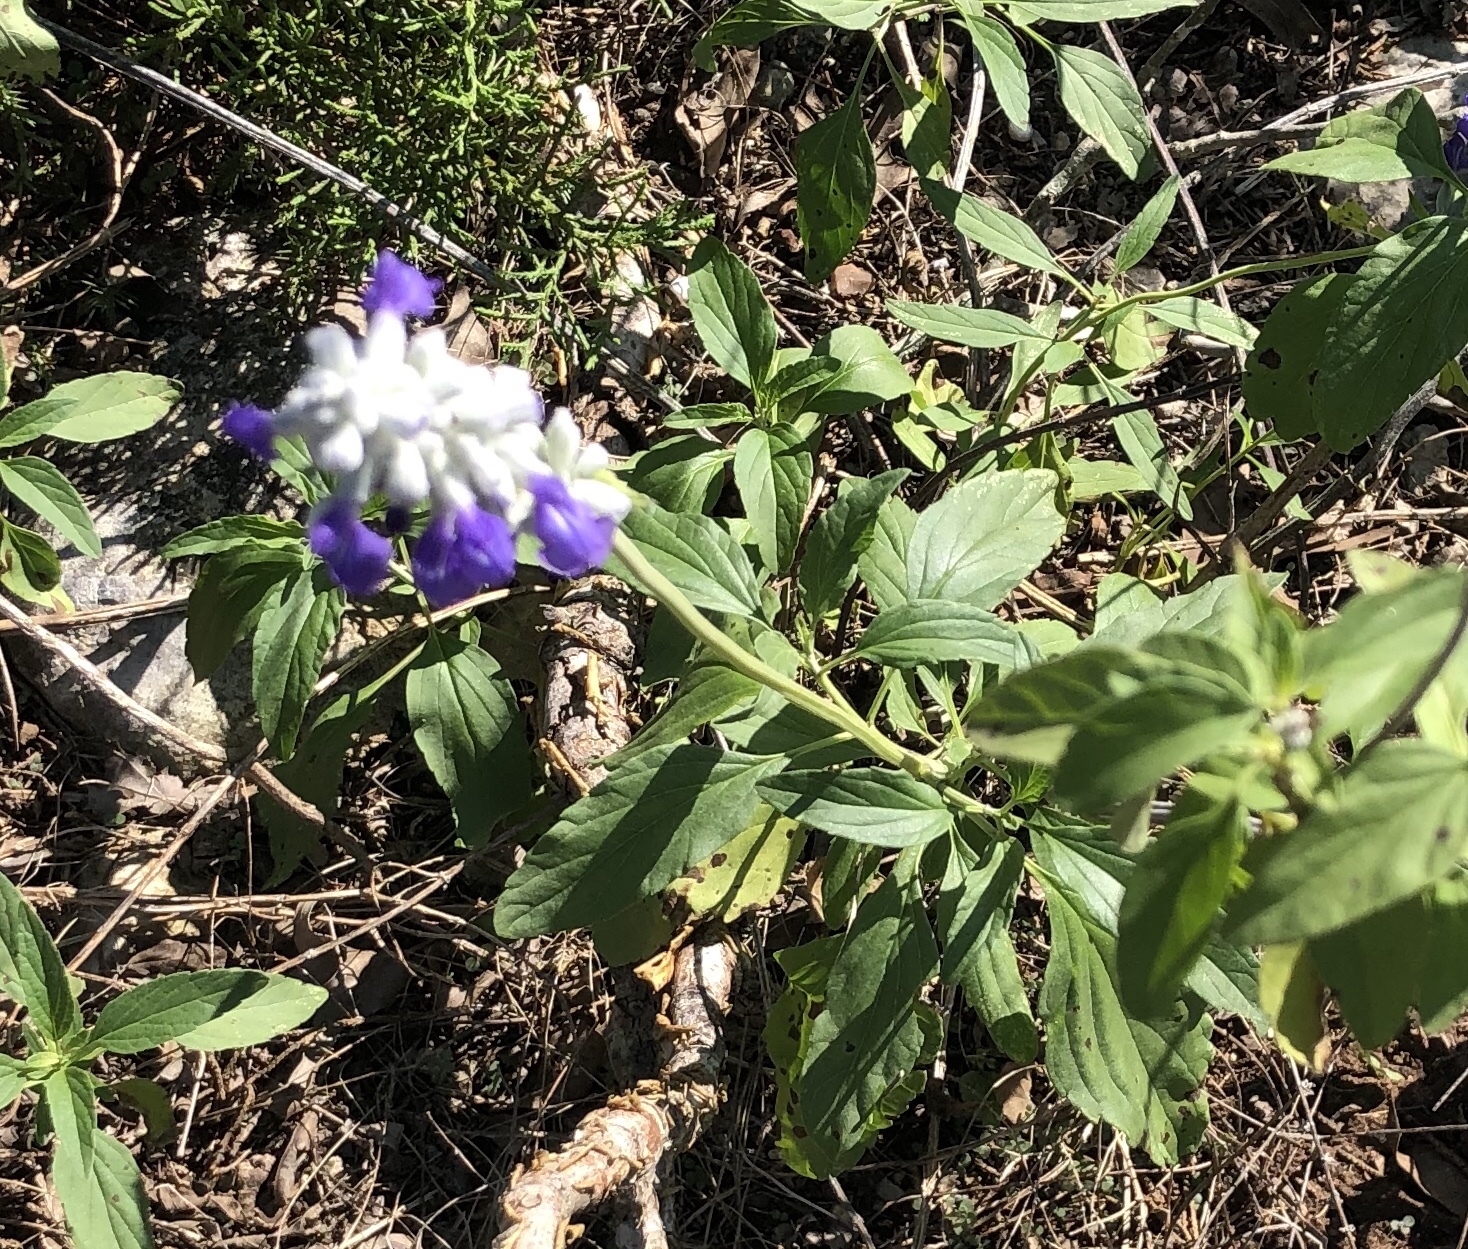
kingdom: Plantae
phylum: Tracheophyta
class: Magnoliopsida
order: Lamiales
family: Lamiaceae
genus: Salvia
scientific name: Salvia farinacea
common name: Mealy sage
